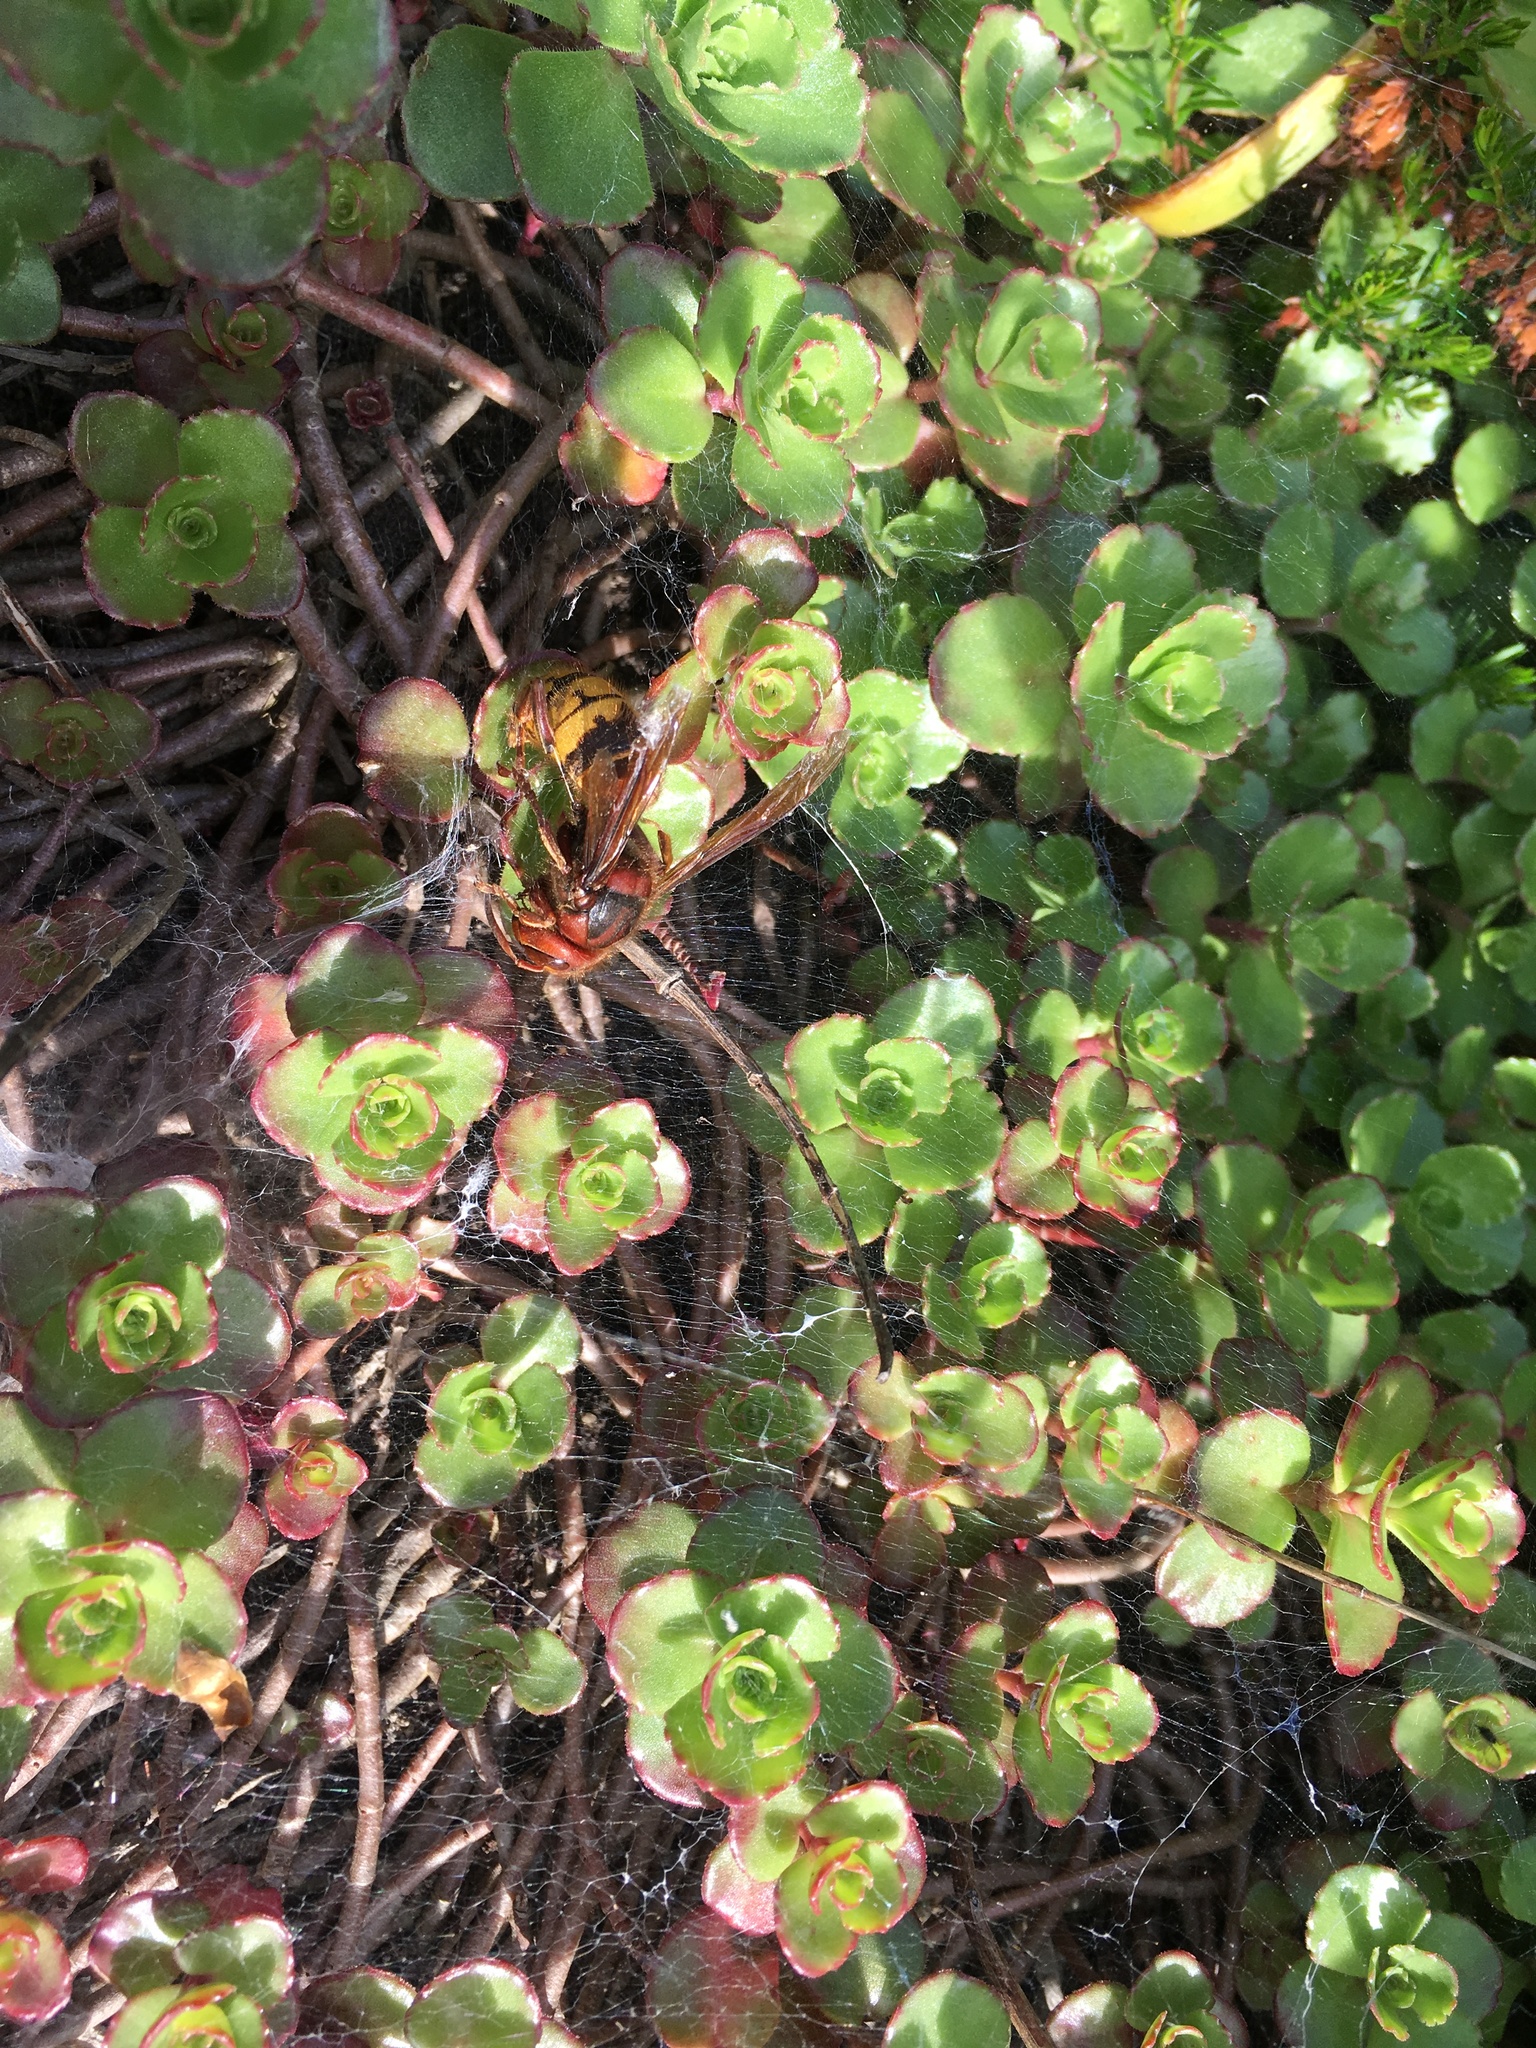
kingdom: Animalia
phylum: Arthropoda
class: Insecta
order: Hymenoptera
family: Vespidae
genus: Vespa
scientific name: Vespa crabro
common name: Hornet
